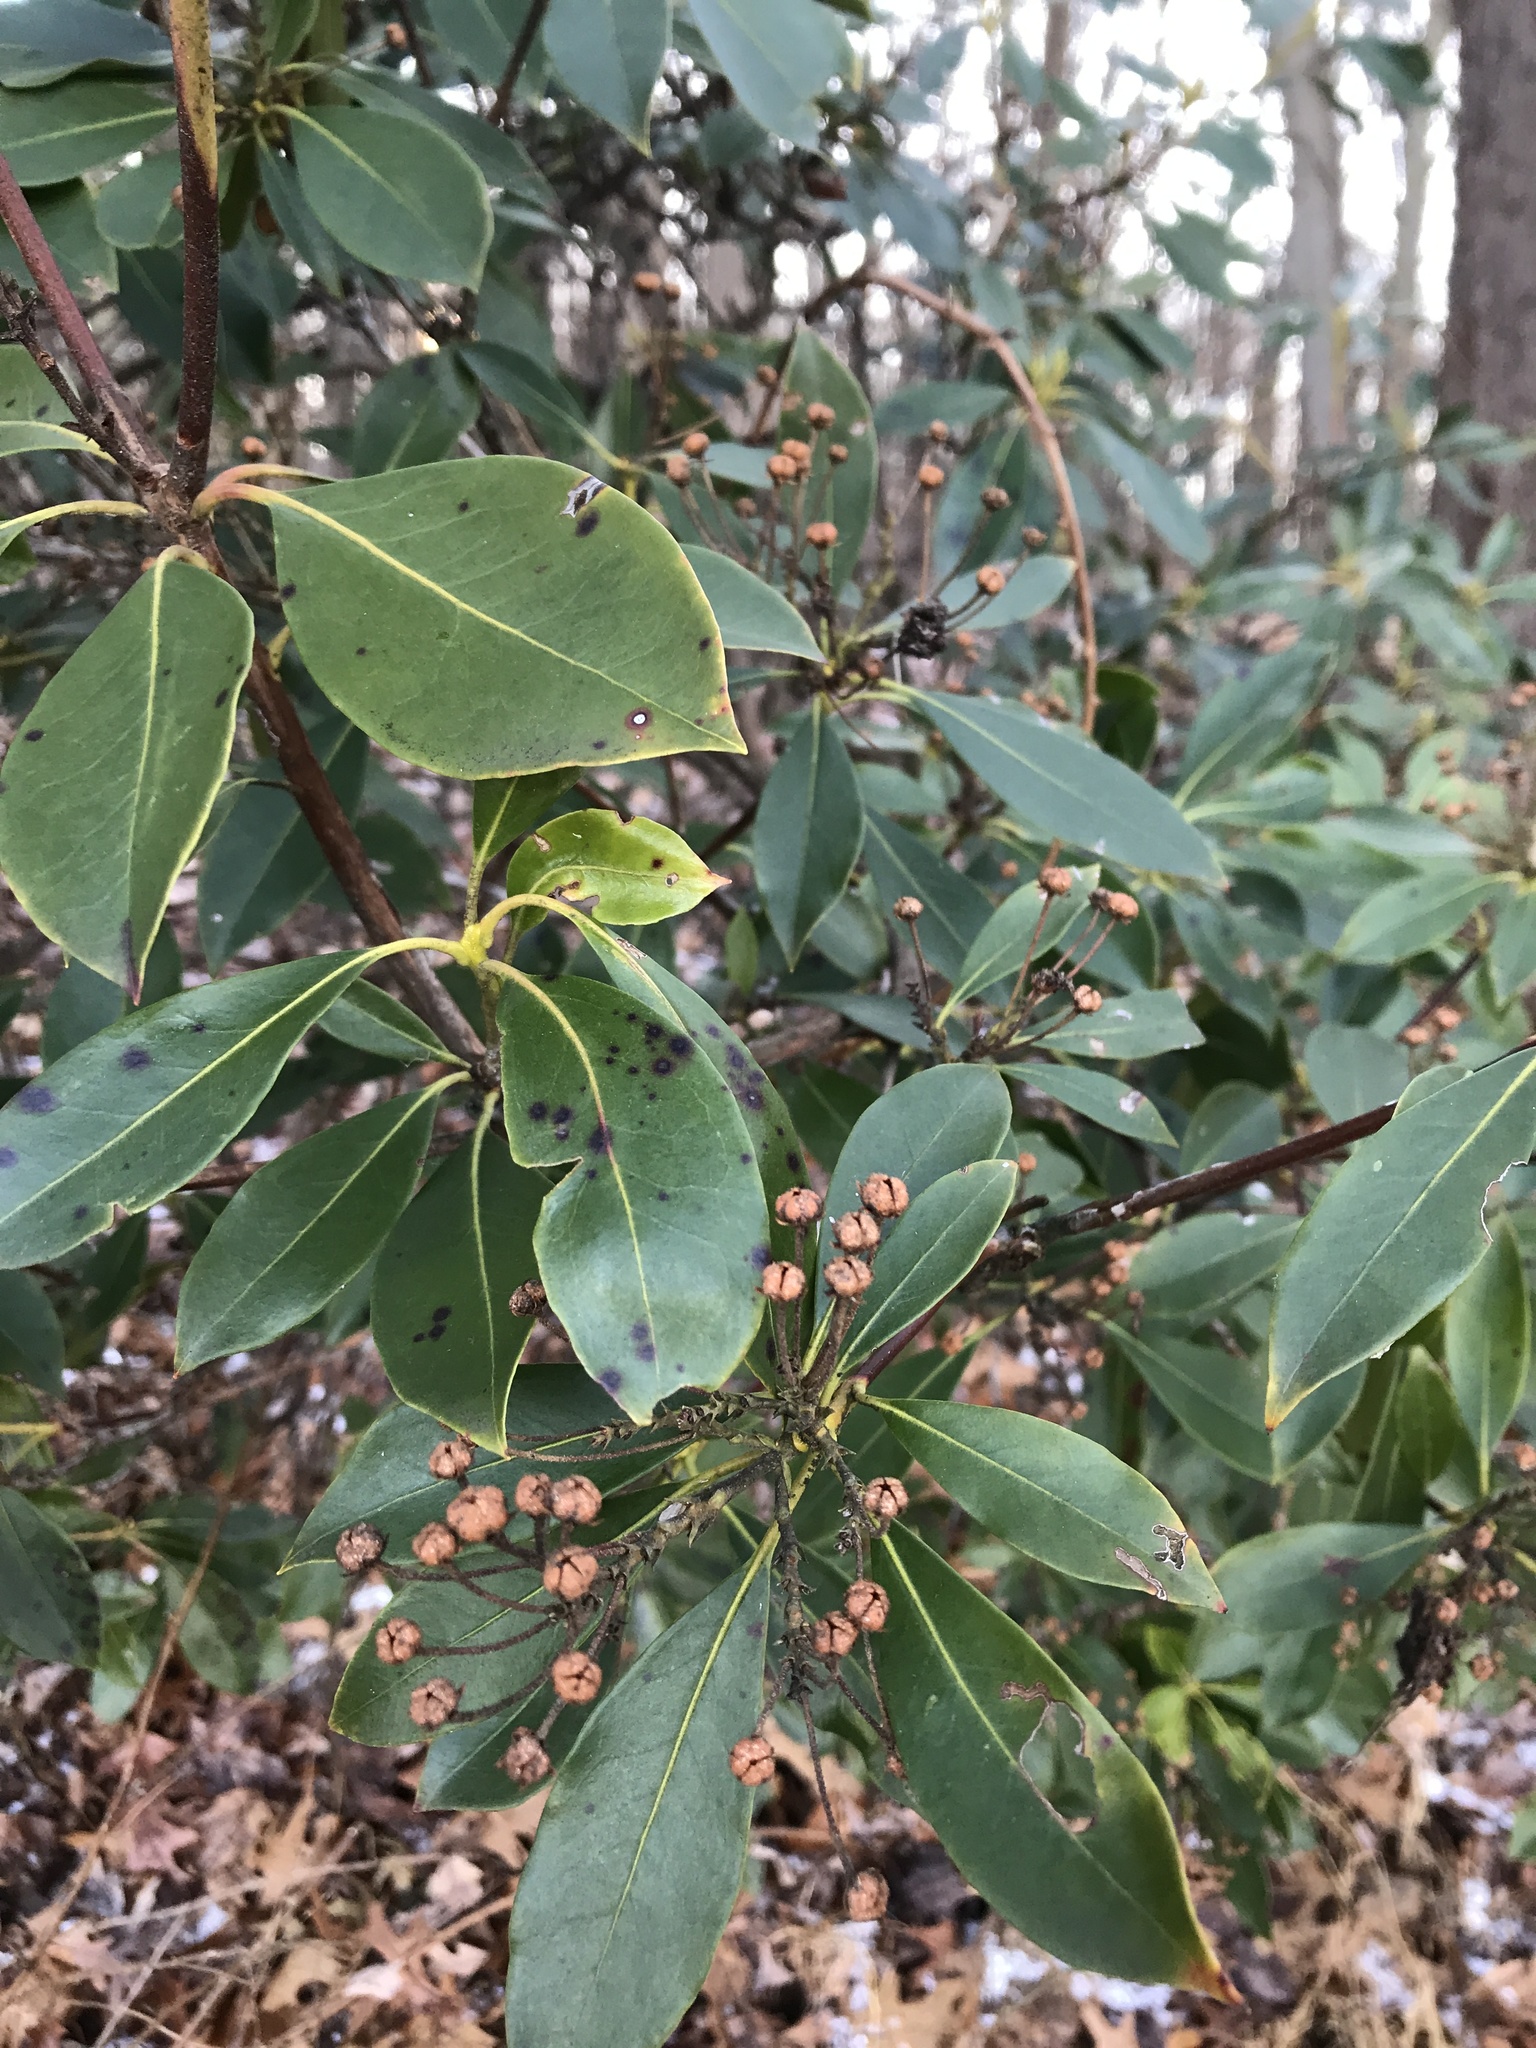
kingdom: Plantae
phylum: Tracheophyta
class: Magnoliopsida
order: Ericales
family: Ericaceae
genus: Kalmia
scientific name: Kalmia latifolia
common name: Mountain-laurel
